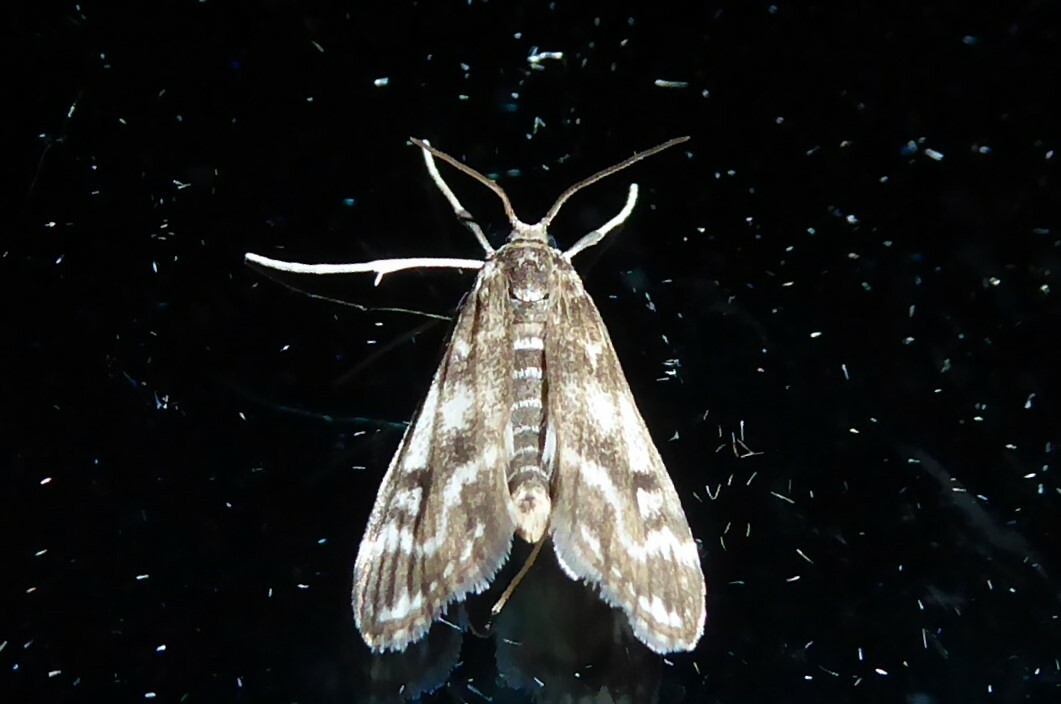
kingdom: Animalia
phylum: Arthropoda
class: Insecta
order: Lepidoptera
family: Crambidae
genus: Hygraula
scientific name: Hygraula nitens
